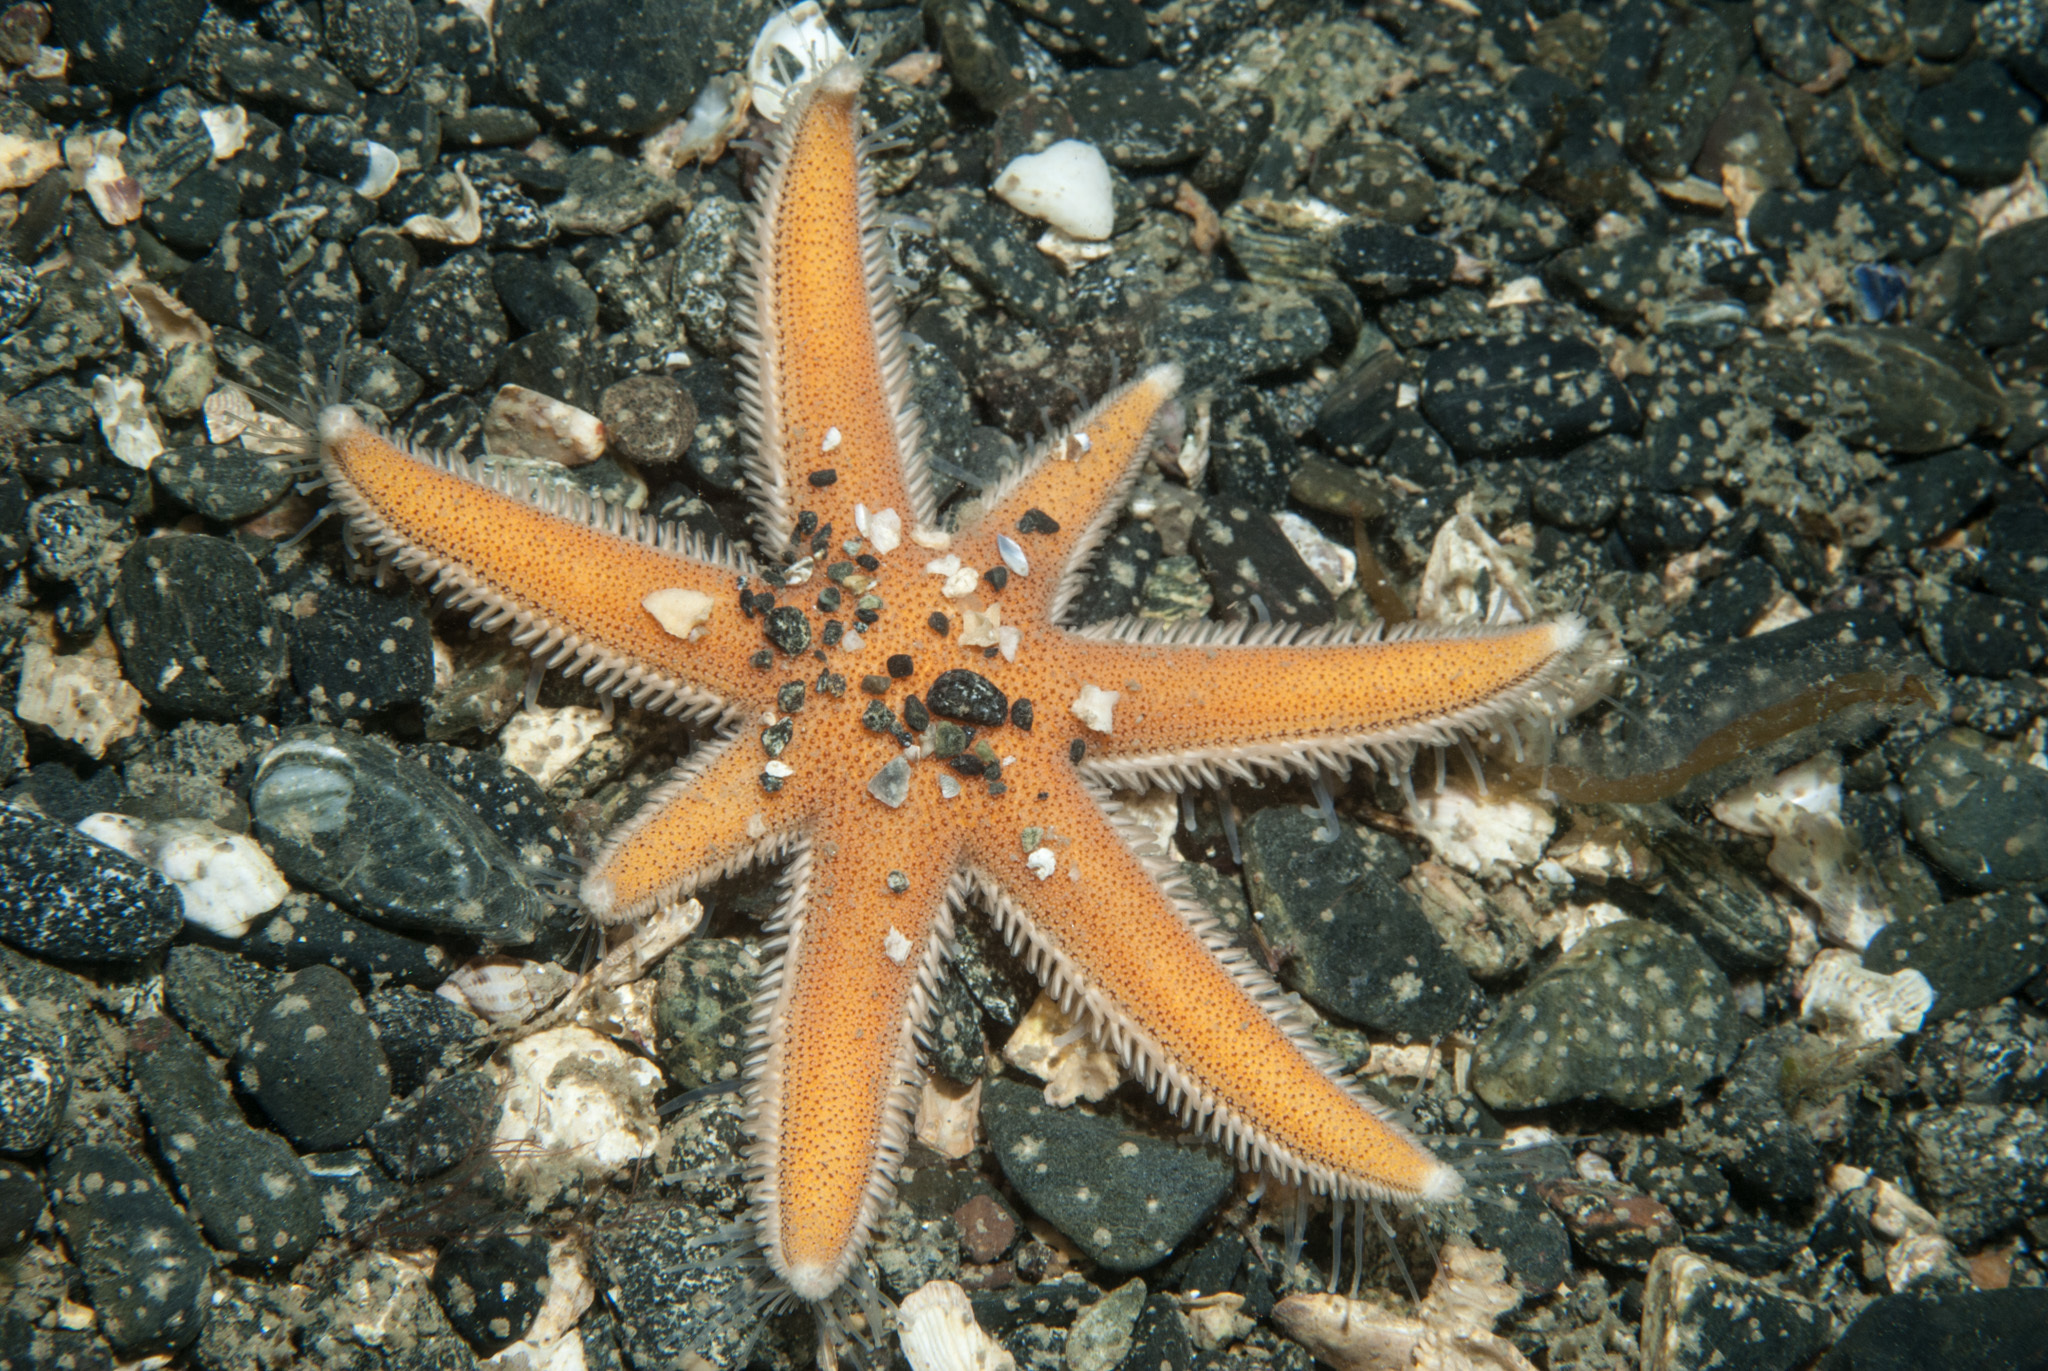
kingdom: Animalia
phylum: Echinodermata
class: Asteroidea
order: Paxillosida
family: Luidiidae
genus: Luidia
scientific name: Luidia ciliaris
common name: Seven-armed starfish
